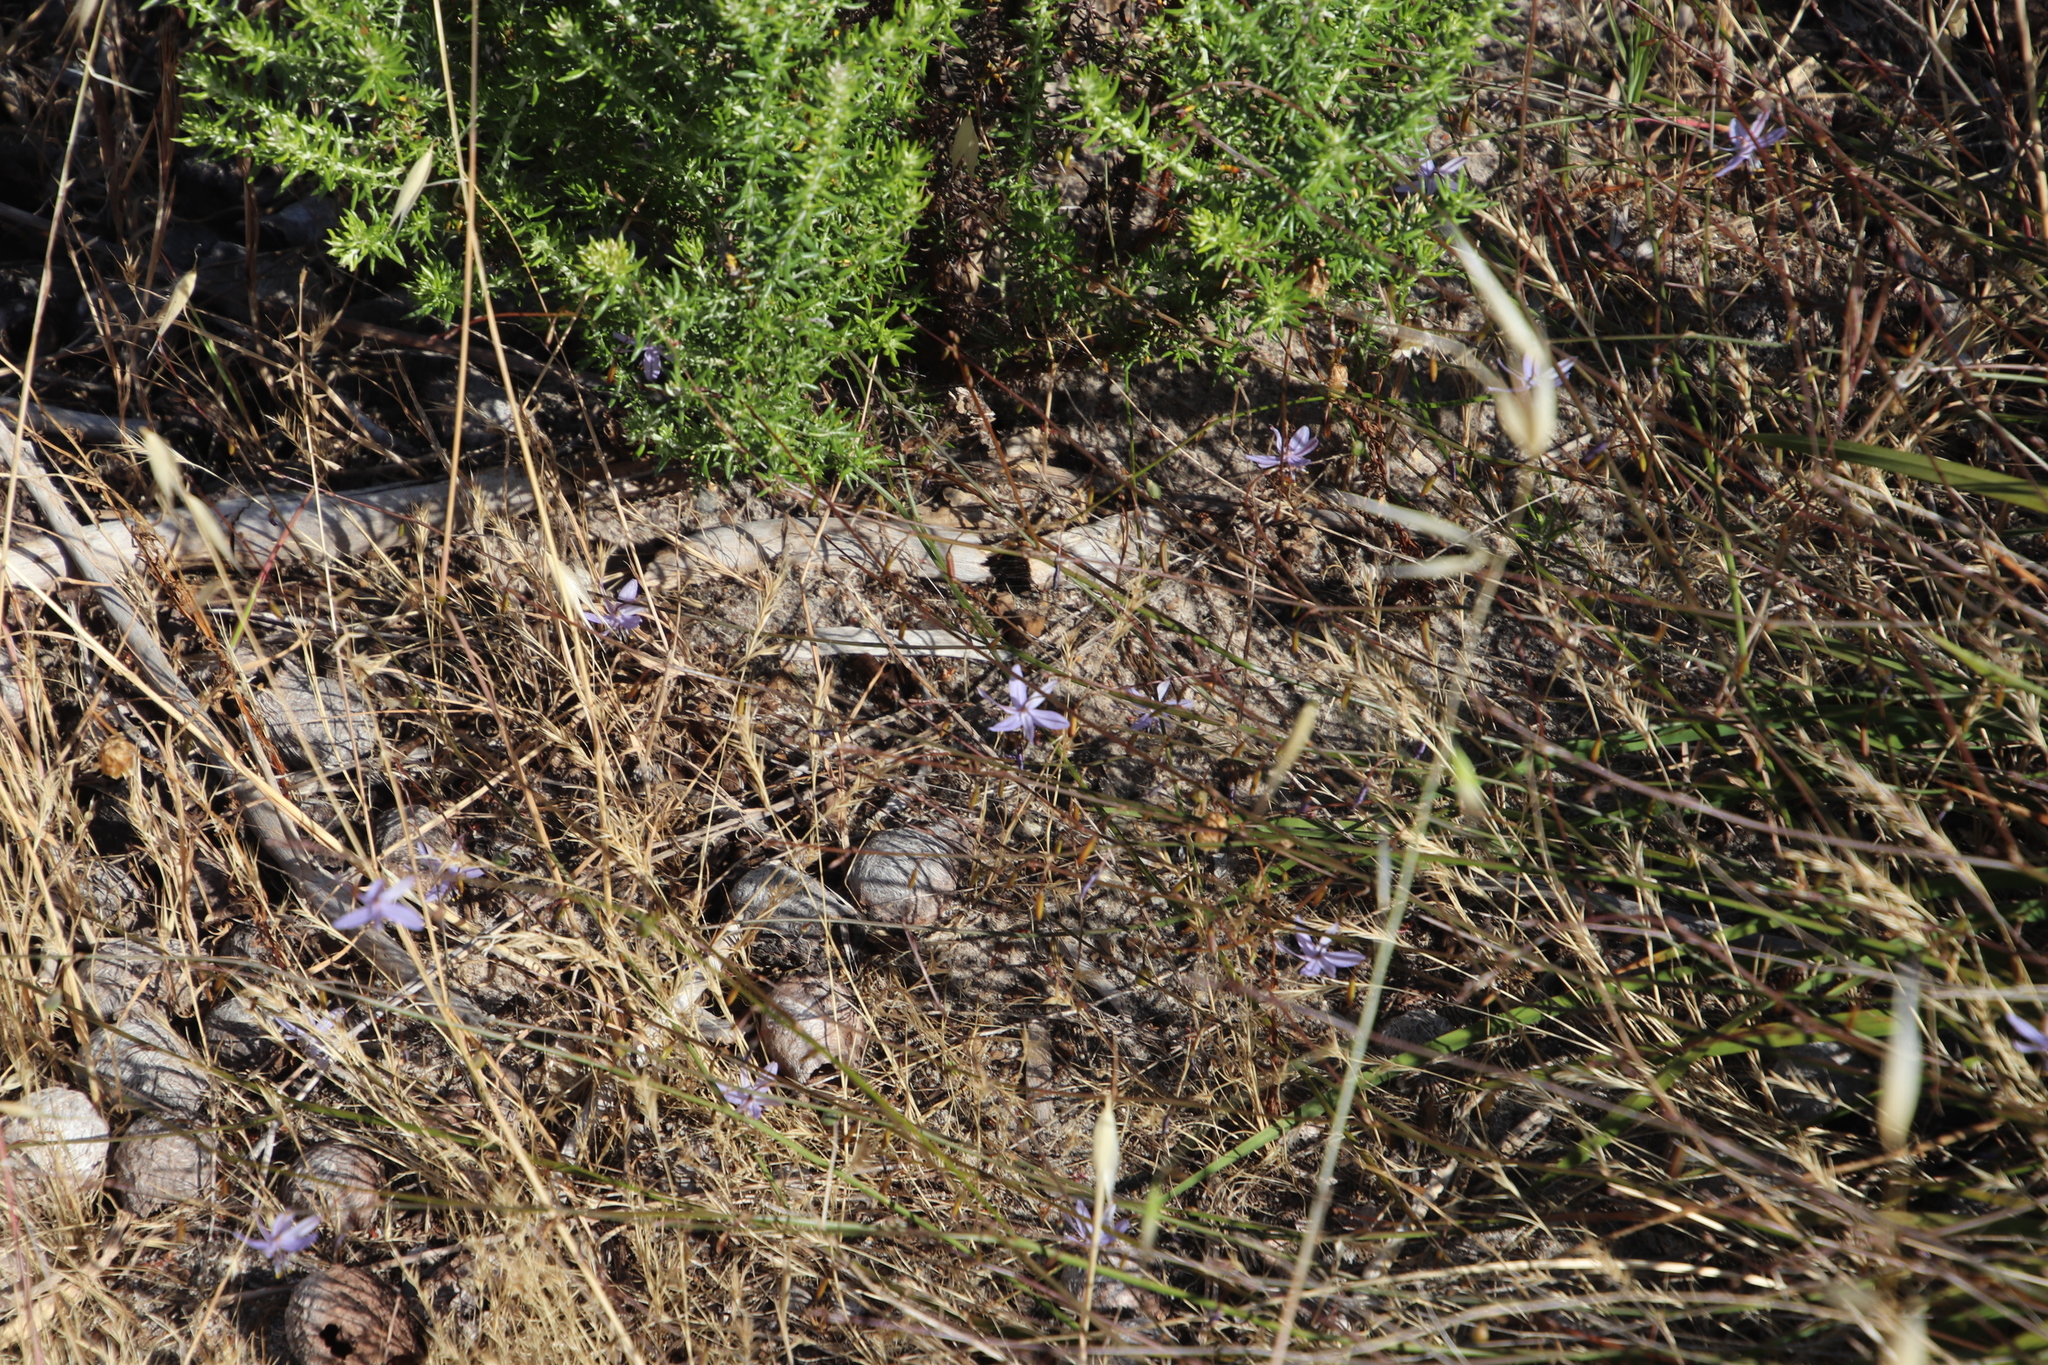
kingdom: Plantae
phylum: Tracheophyta
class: Liliopsida
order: Asparagales
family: Asphodelaceae
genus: Caesia
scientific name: Caesia contorta
